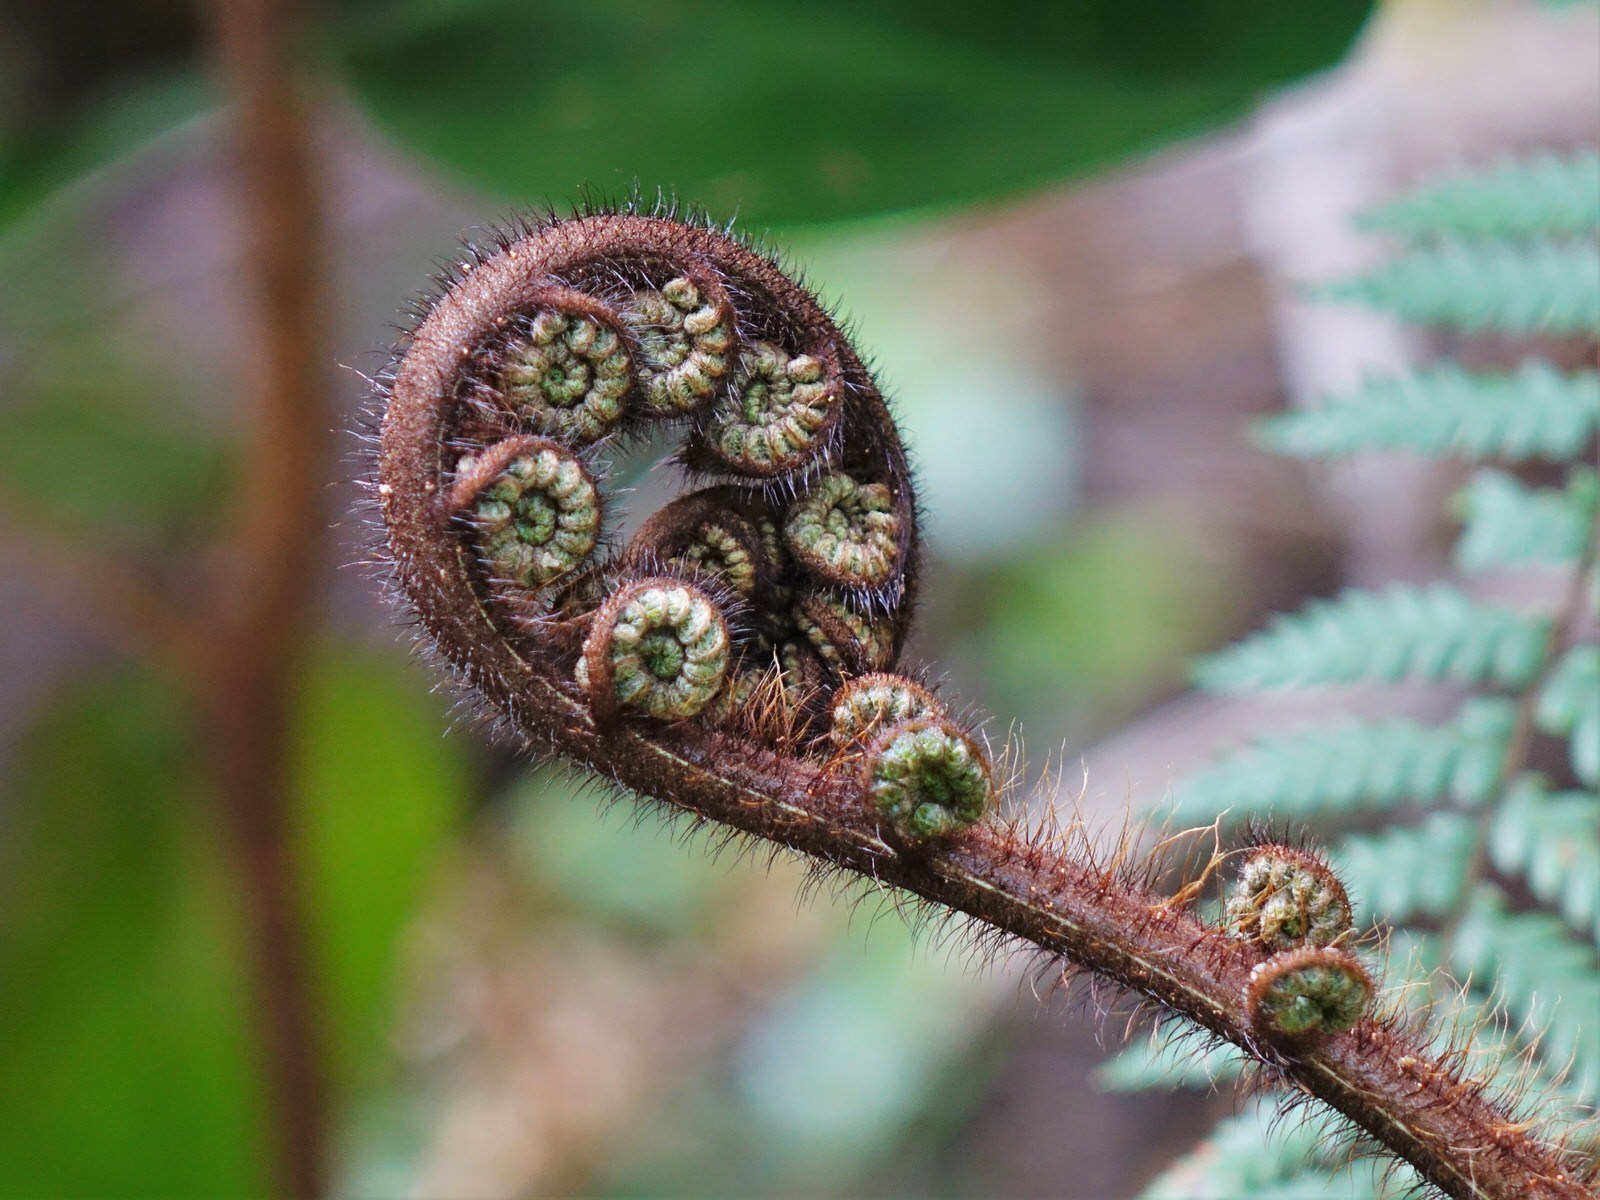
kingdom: Plantae
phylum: Tracheophyta
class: Polypodiopsida
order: Cyatheales
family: Dicksoniaceae
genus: Dicksonia
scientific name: Dicksonia squarrosa
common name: Hard treefern
